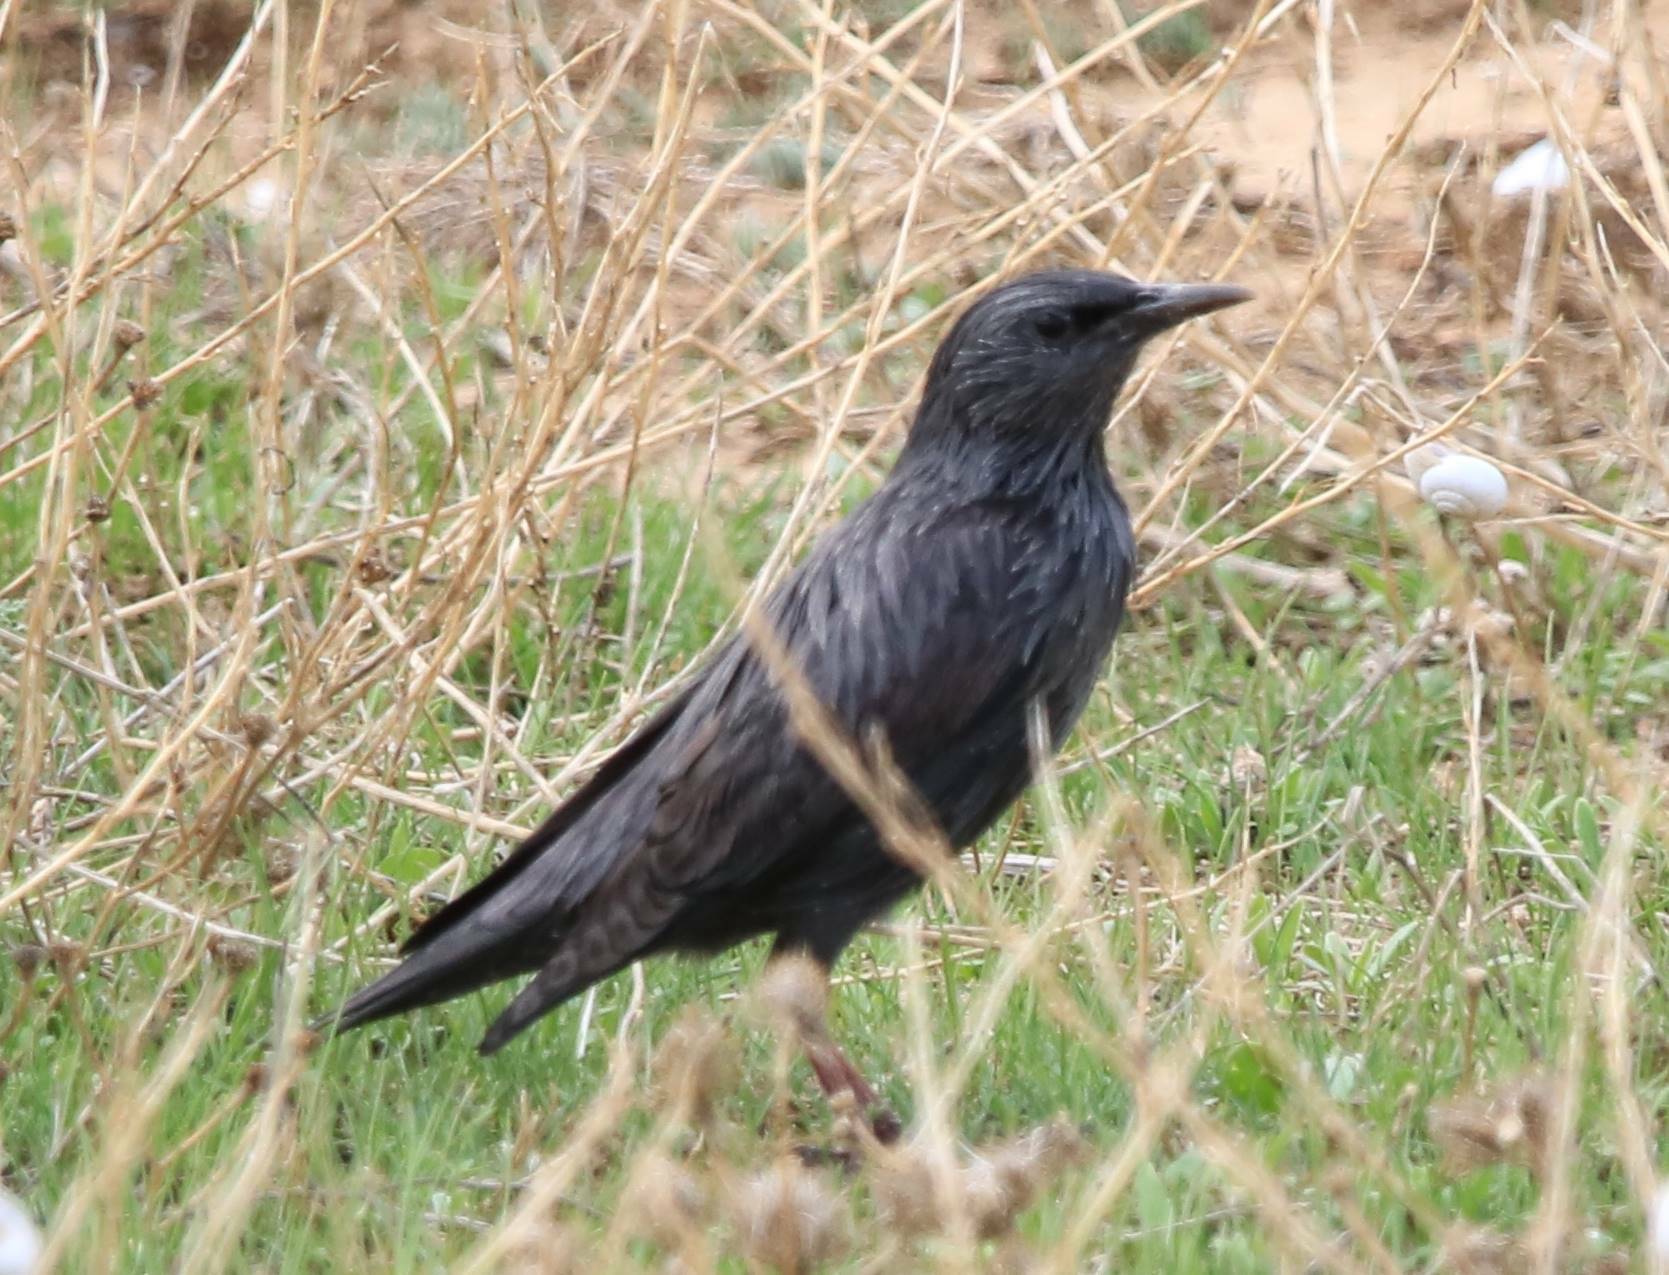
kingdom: Animalia
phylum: Chordata
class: Aves
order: Passeriformes
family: Sturnidae
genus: Sturnus
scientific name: Sturnus unicolor
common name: Spotless starling
